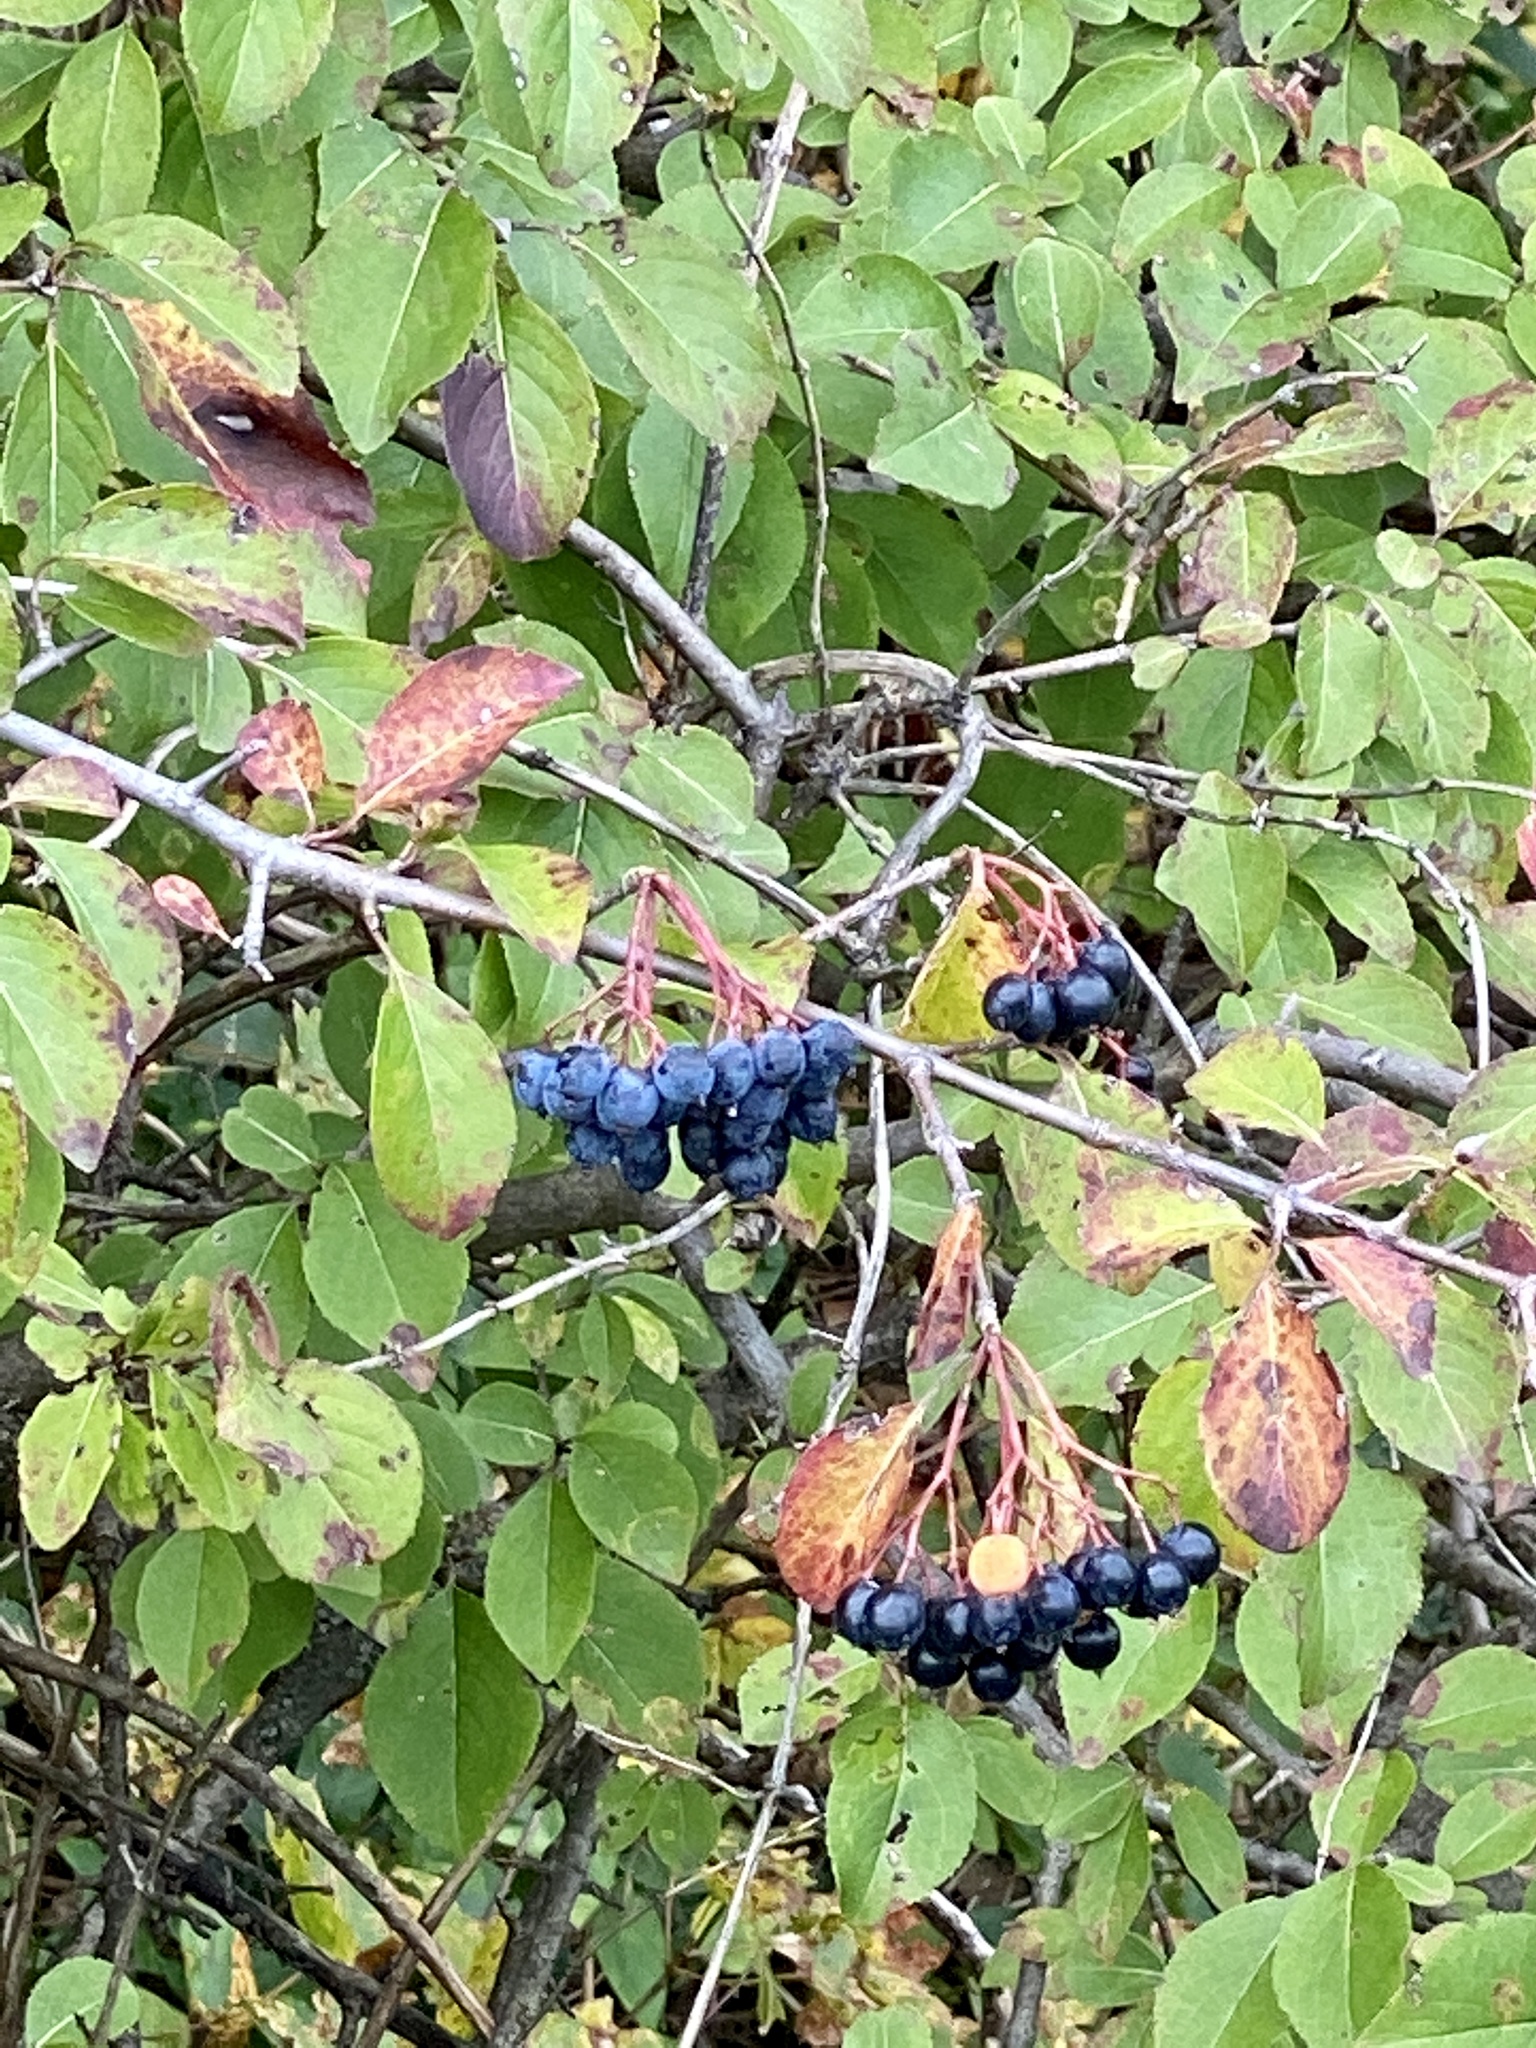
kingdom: Plantae
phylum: Tracheophyta
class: Magnoliopsida
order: Dipsacales
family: Viburnaceae
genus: Viburnum
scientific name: Viburnum prunifolium
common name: Black haw
